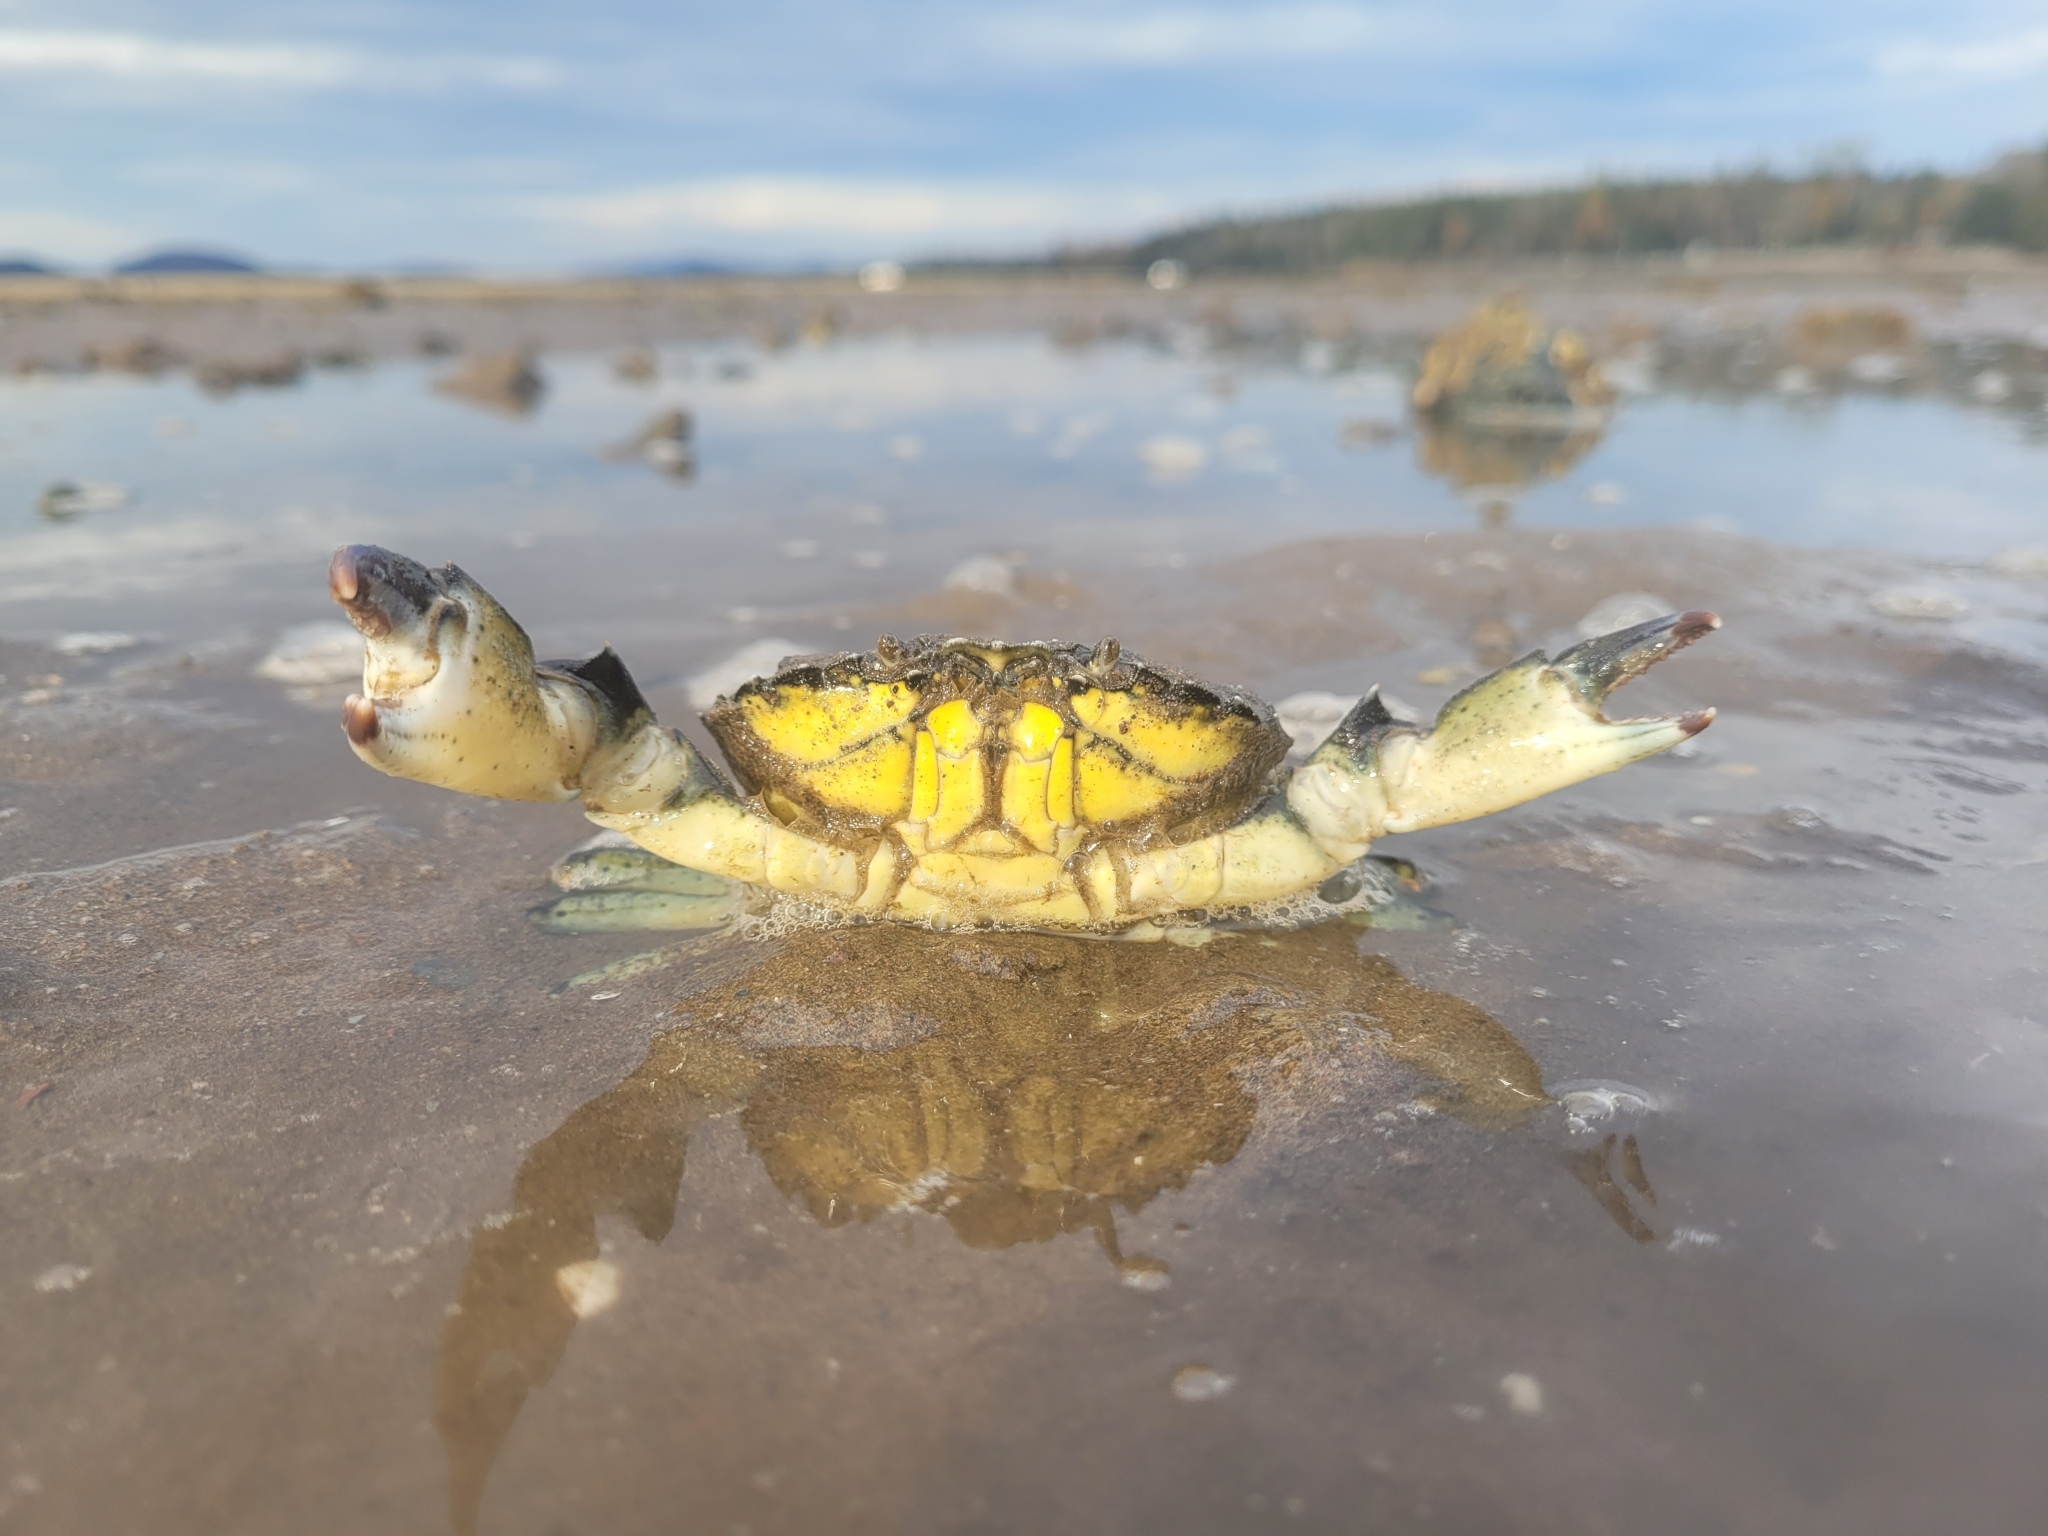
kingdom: Animalia
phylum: Arthropoda
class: Malacostraca
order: Decapoda
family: Carcinidae
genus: Carcinus
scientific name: Carcinus maenas
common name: European green crab
